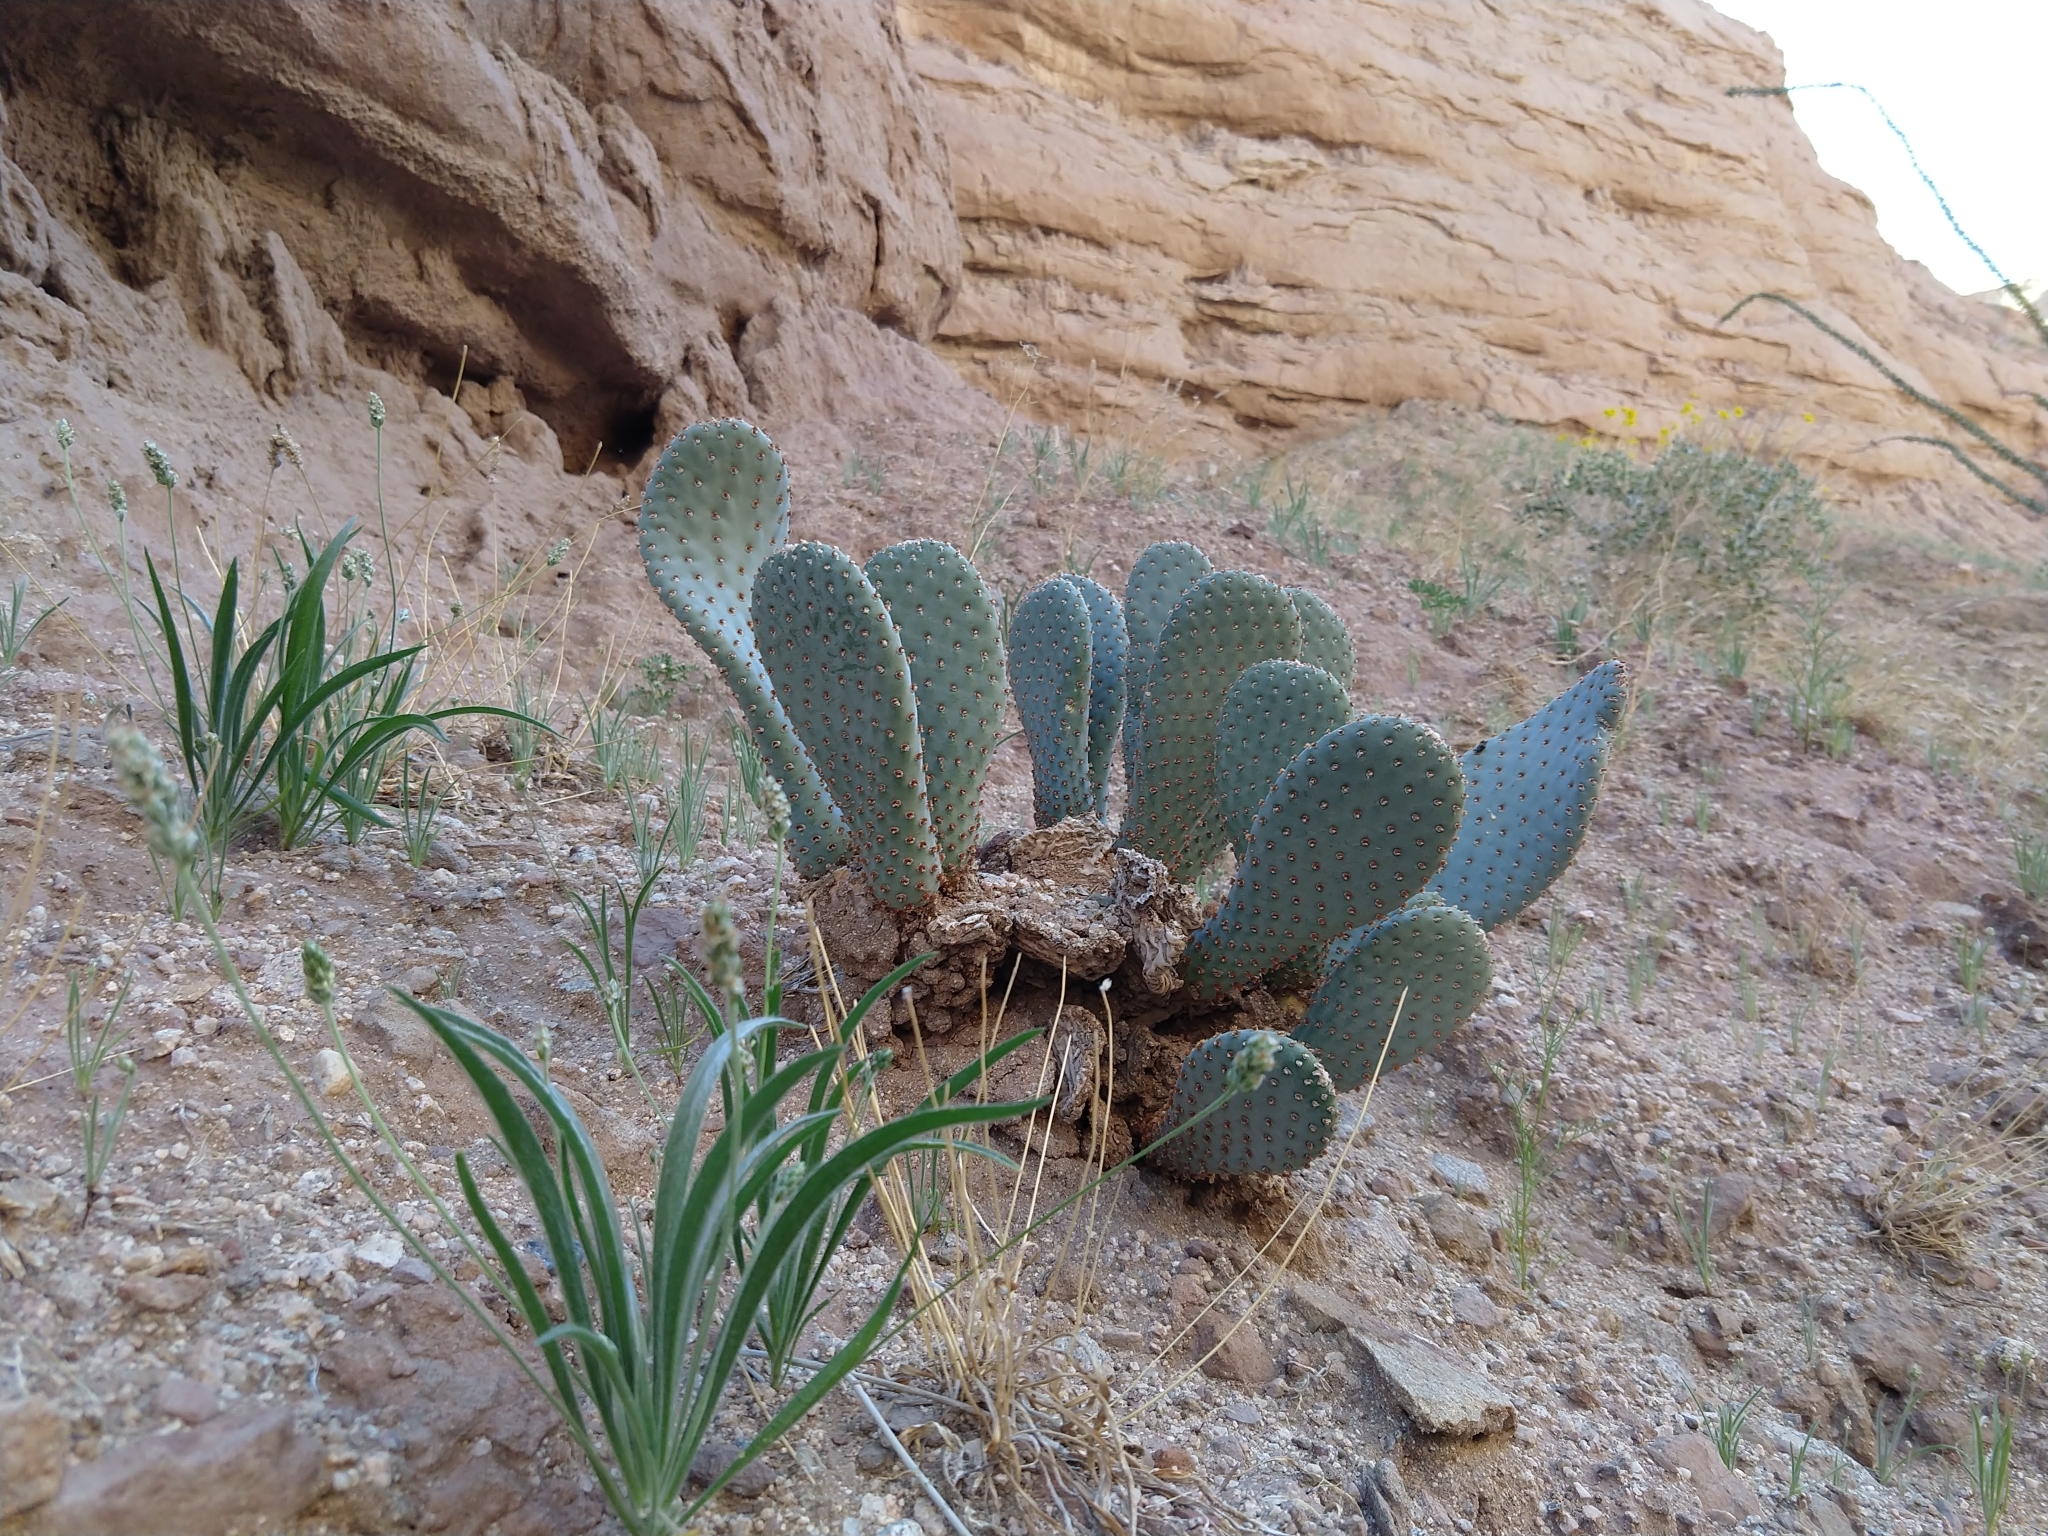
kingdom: Plantae
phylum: Tracheophyta
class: Magnoliopsida
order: Caryophyllales
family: Cactaceae
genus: Opuntia
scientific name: Opuntia basilaris
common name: Beavertail prickly-pear
